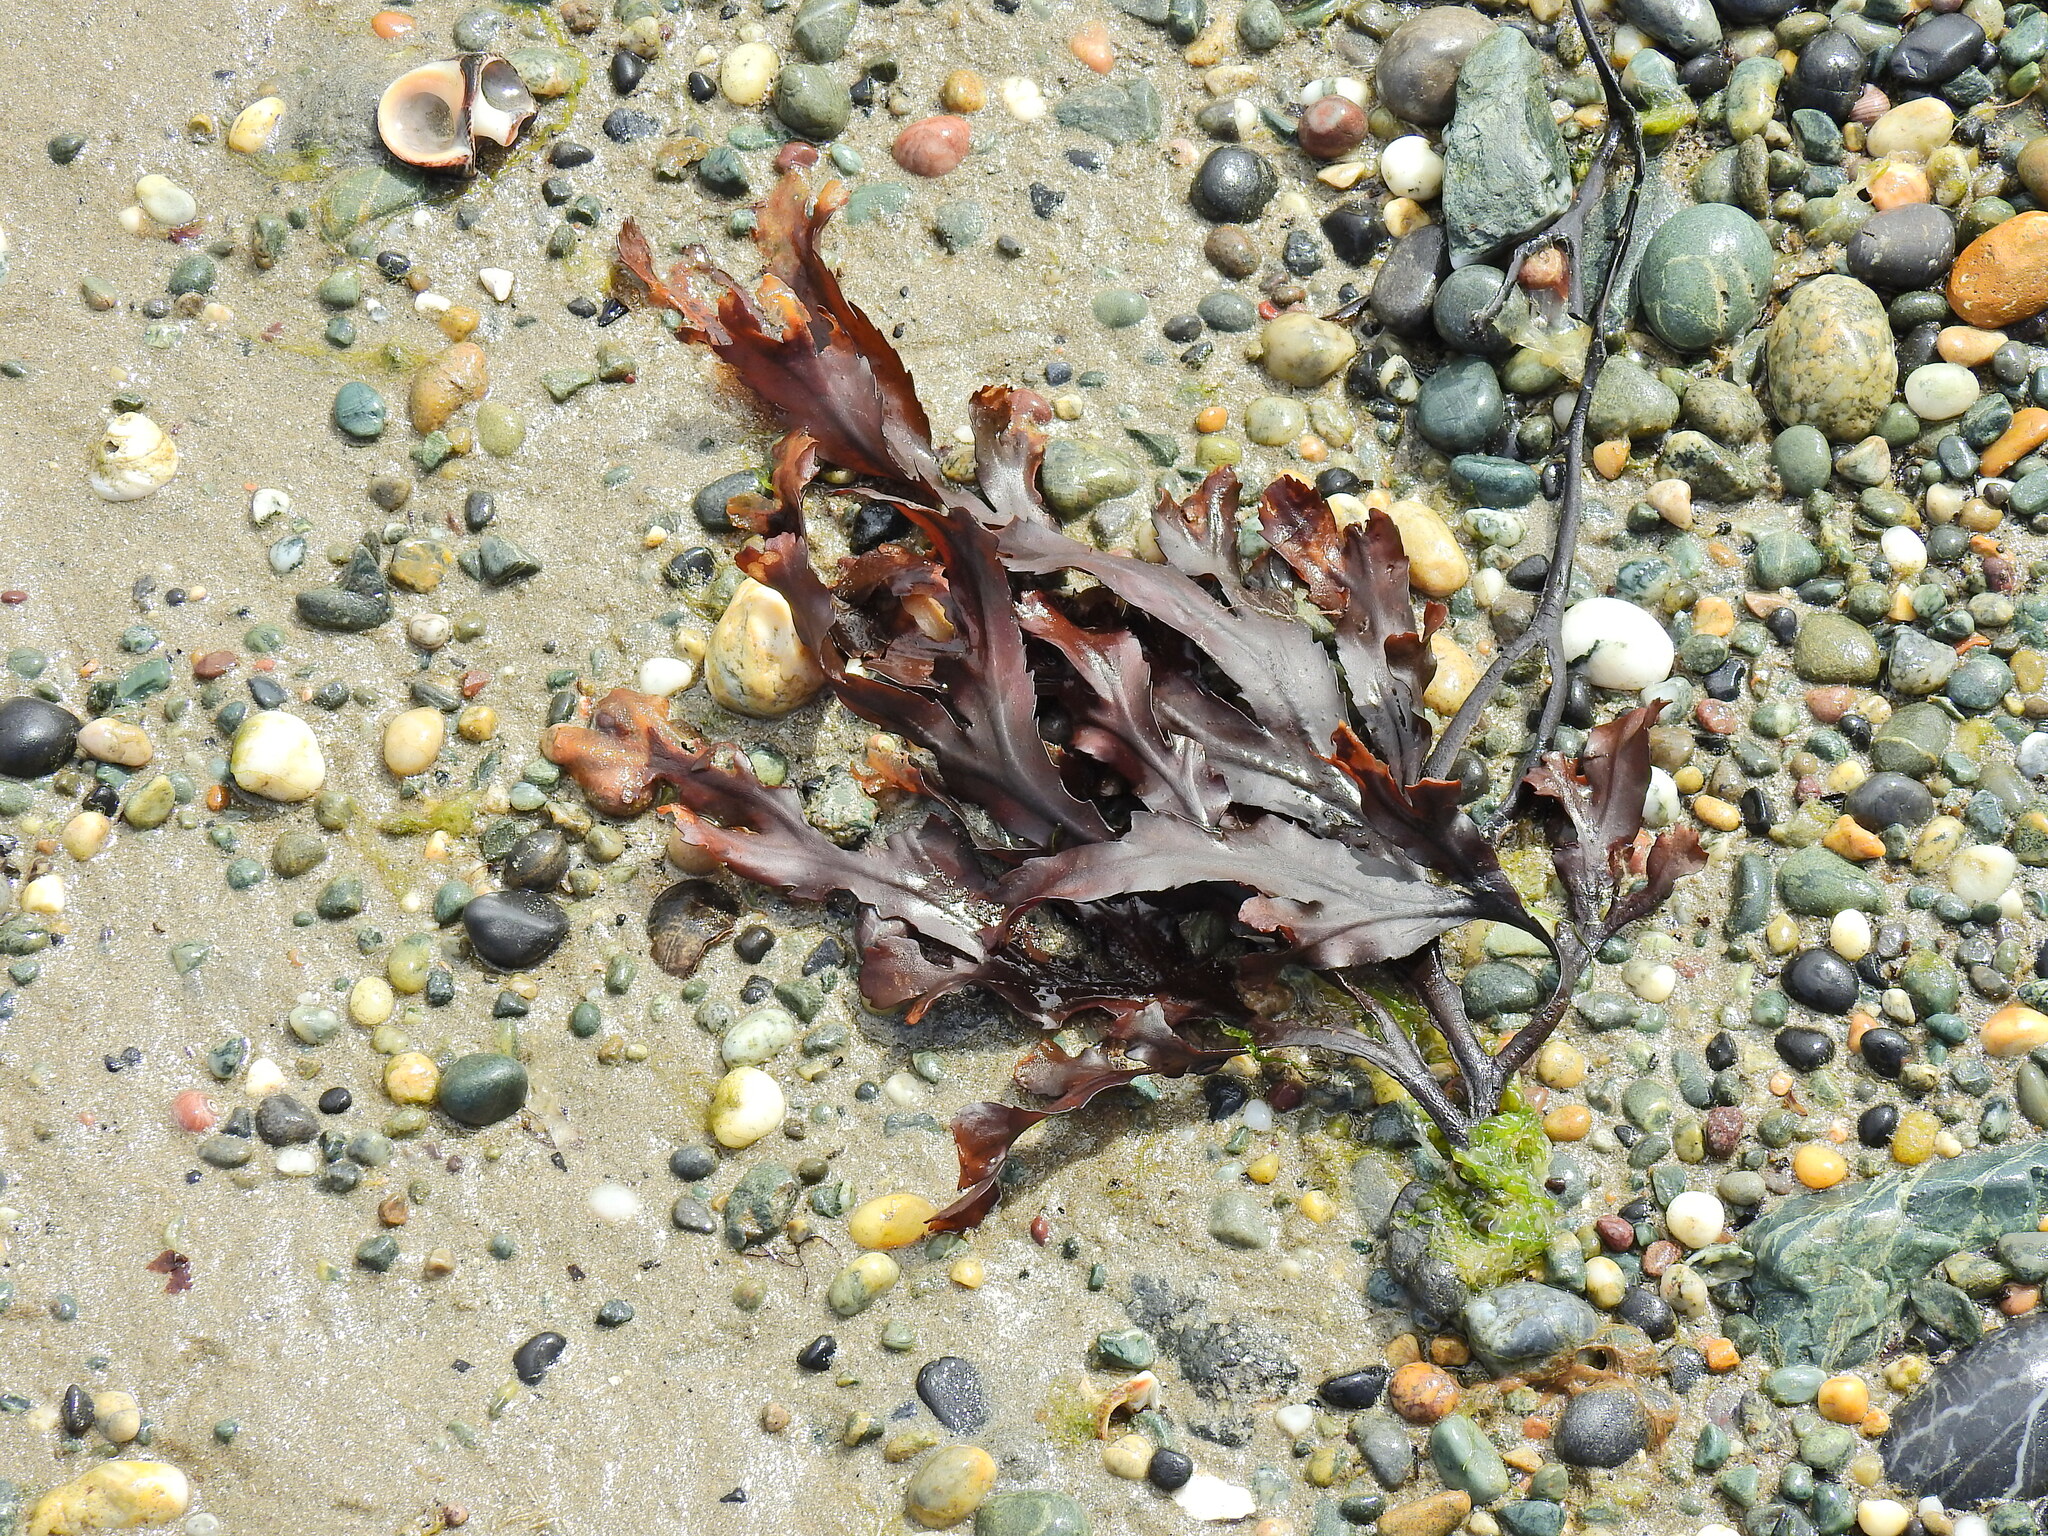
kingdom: Chromista
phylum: Ochrophyta
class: Phaeophyceae
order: Fucales
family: Fucaceae
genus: Fucus
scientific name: Fucus serratus
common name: Toothed wrack
